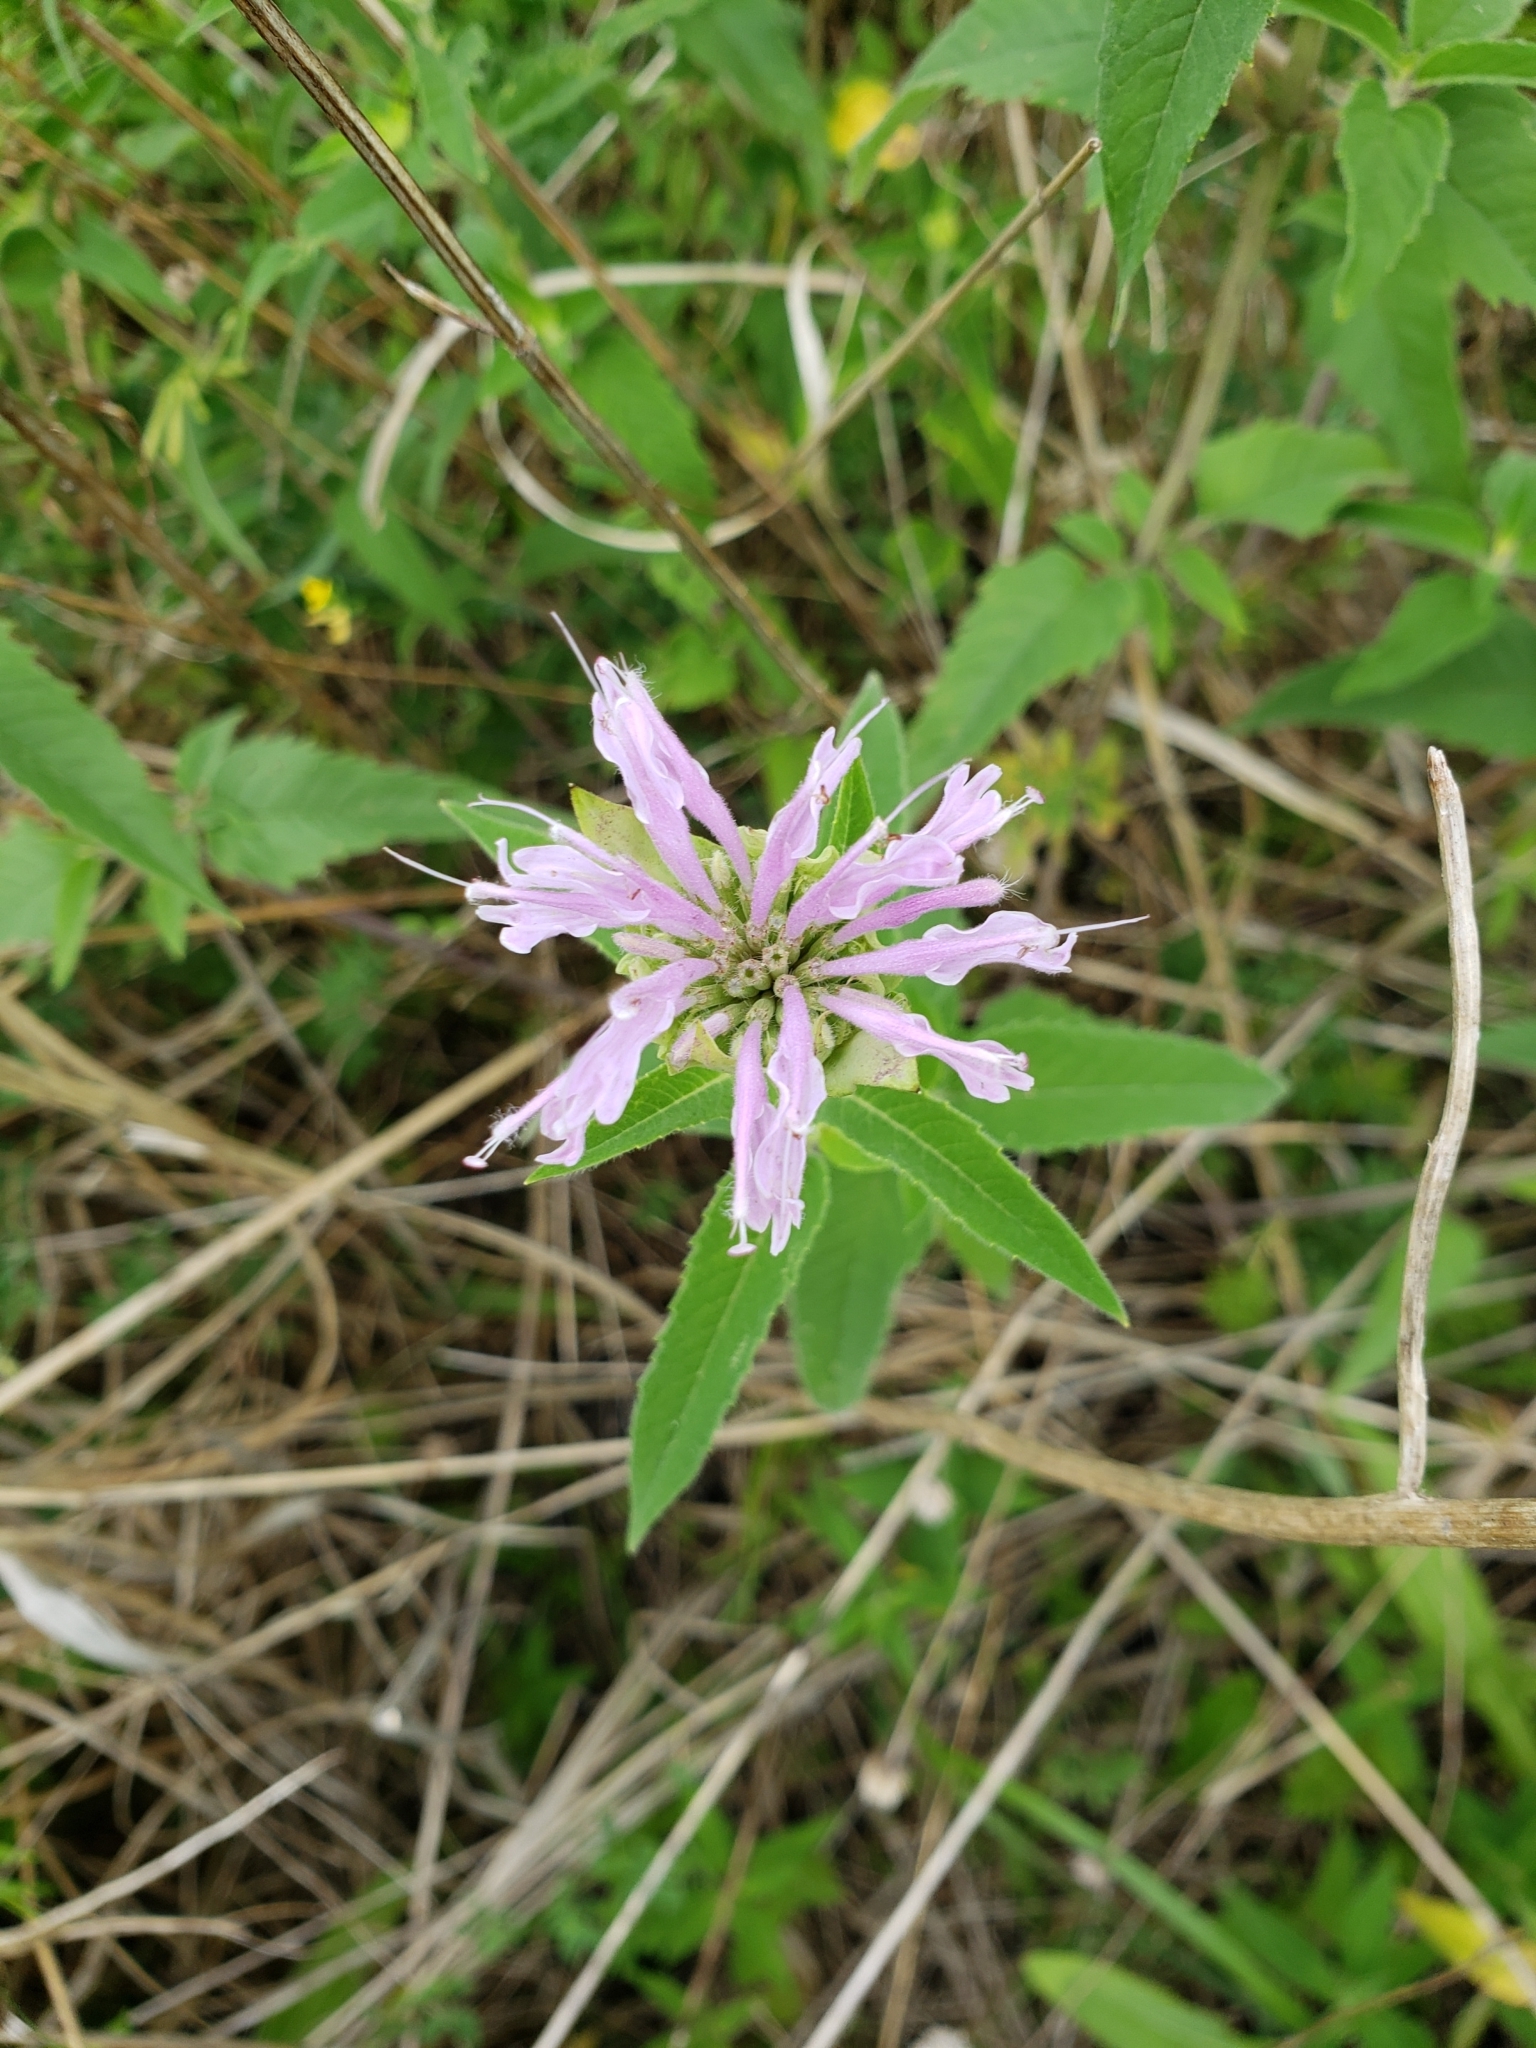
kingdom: Plantae
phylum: Tracheophyta
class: Magnoliopsida
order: Lamiales
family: Lamiaceae
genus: Monarda
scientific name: Monarda fistulosa
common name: Purple beebalm
